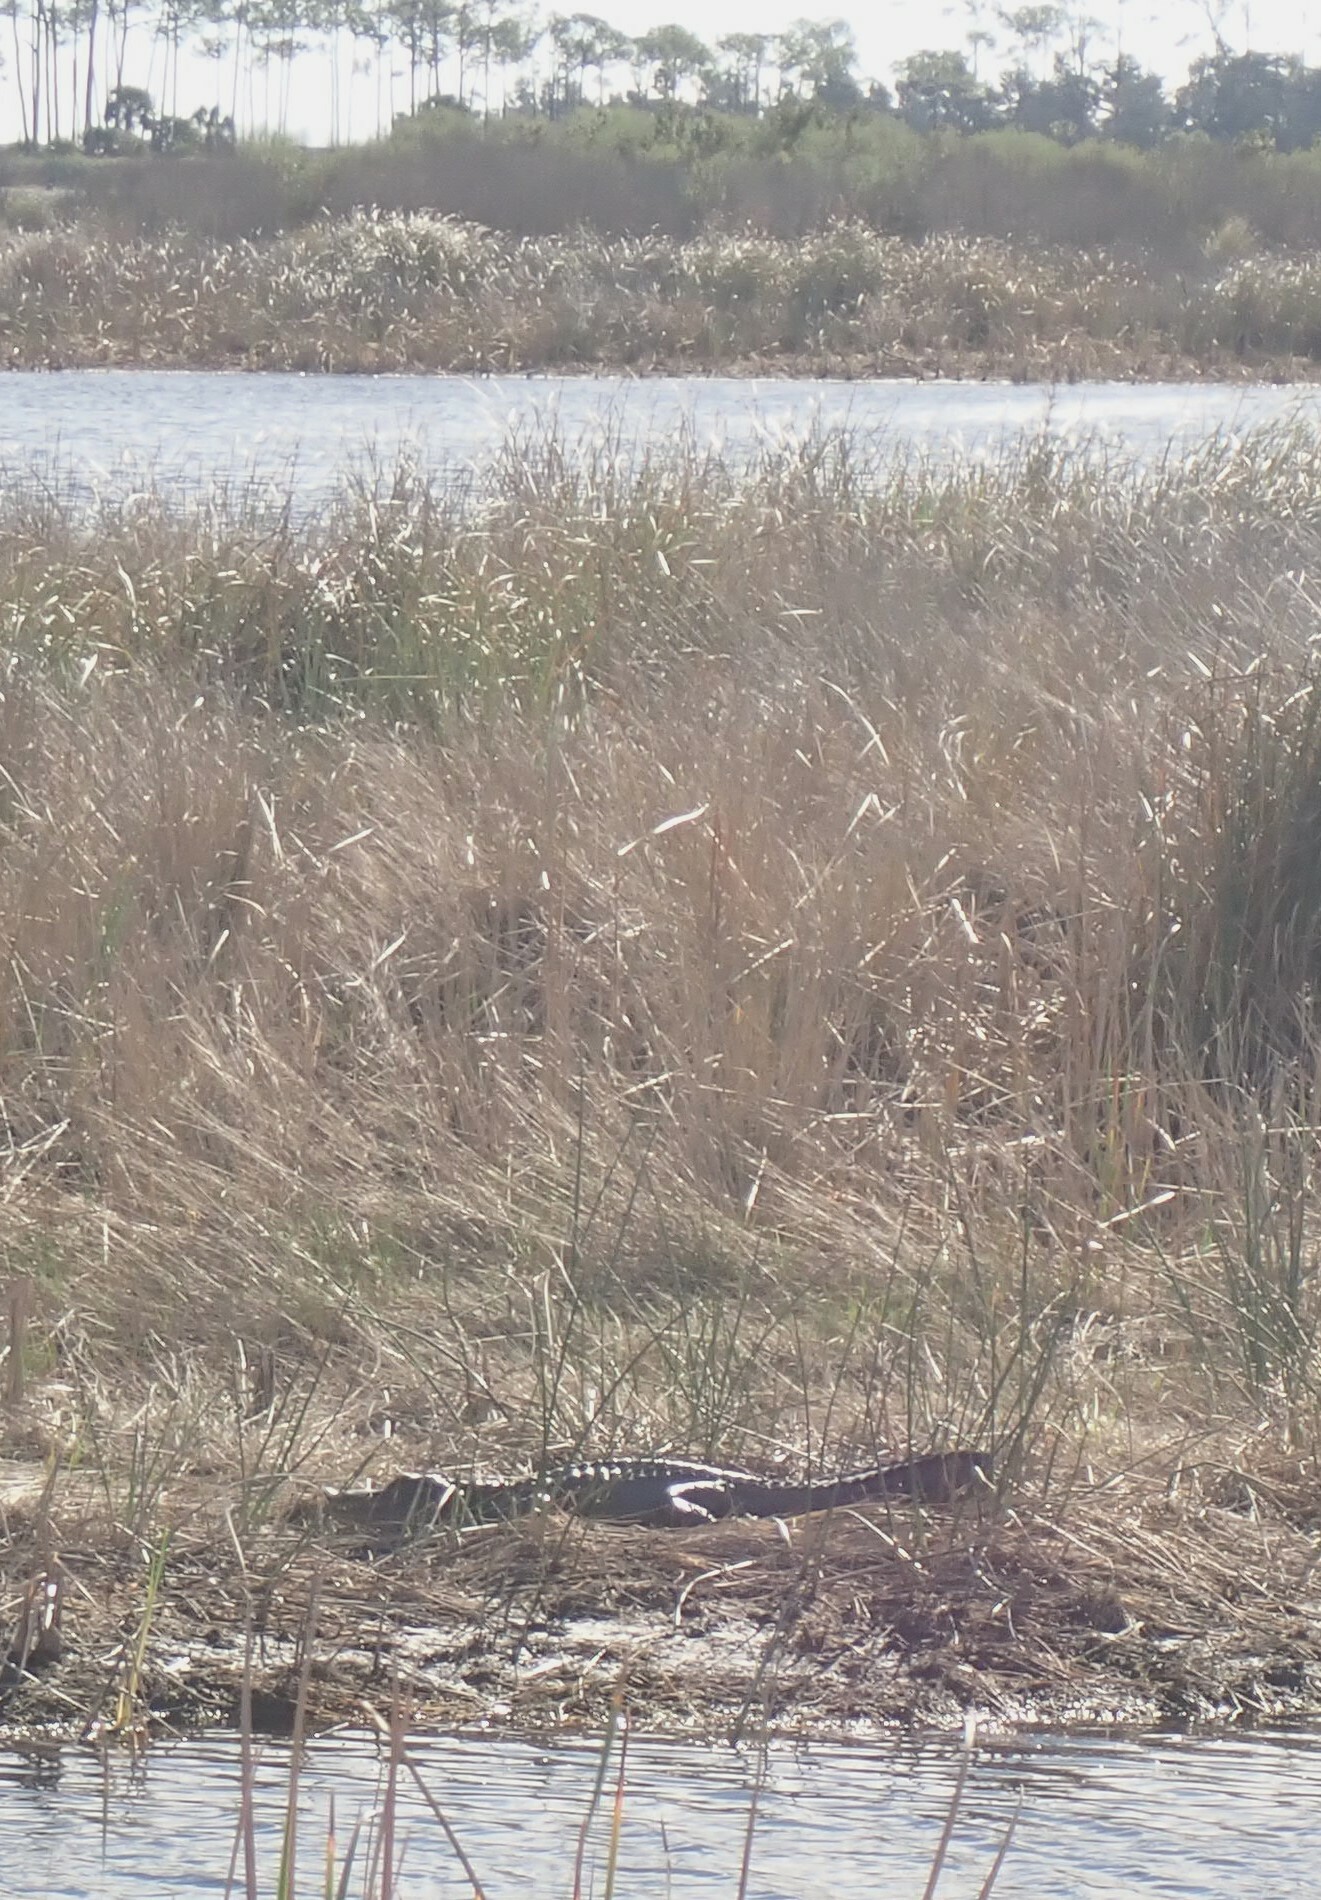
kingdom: Animalia
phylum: Chordata
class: Crocodylia
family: Alligatoridae
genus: Alligator
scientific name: Alligator mississippiensis
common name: American alligator
